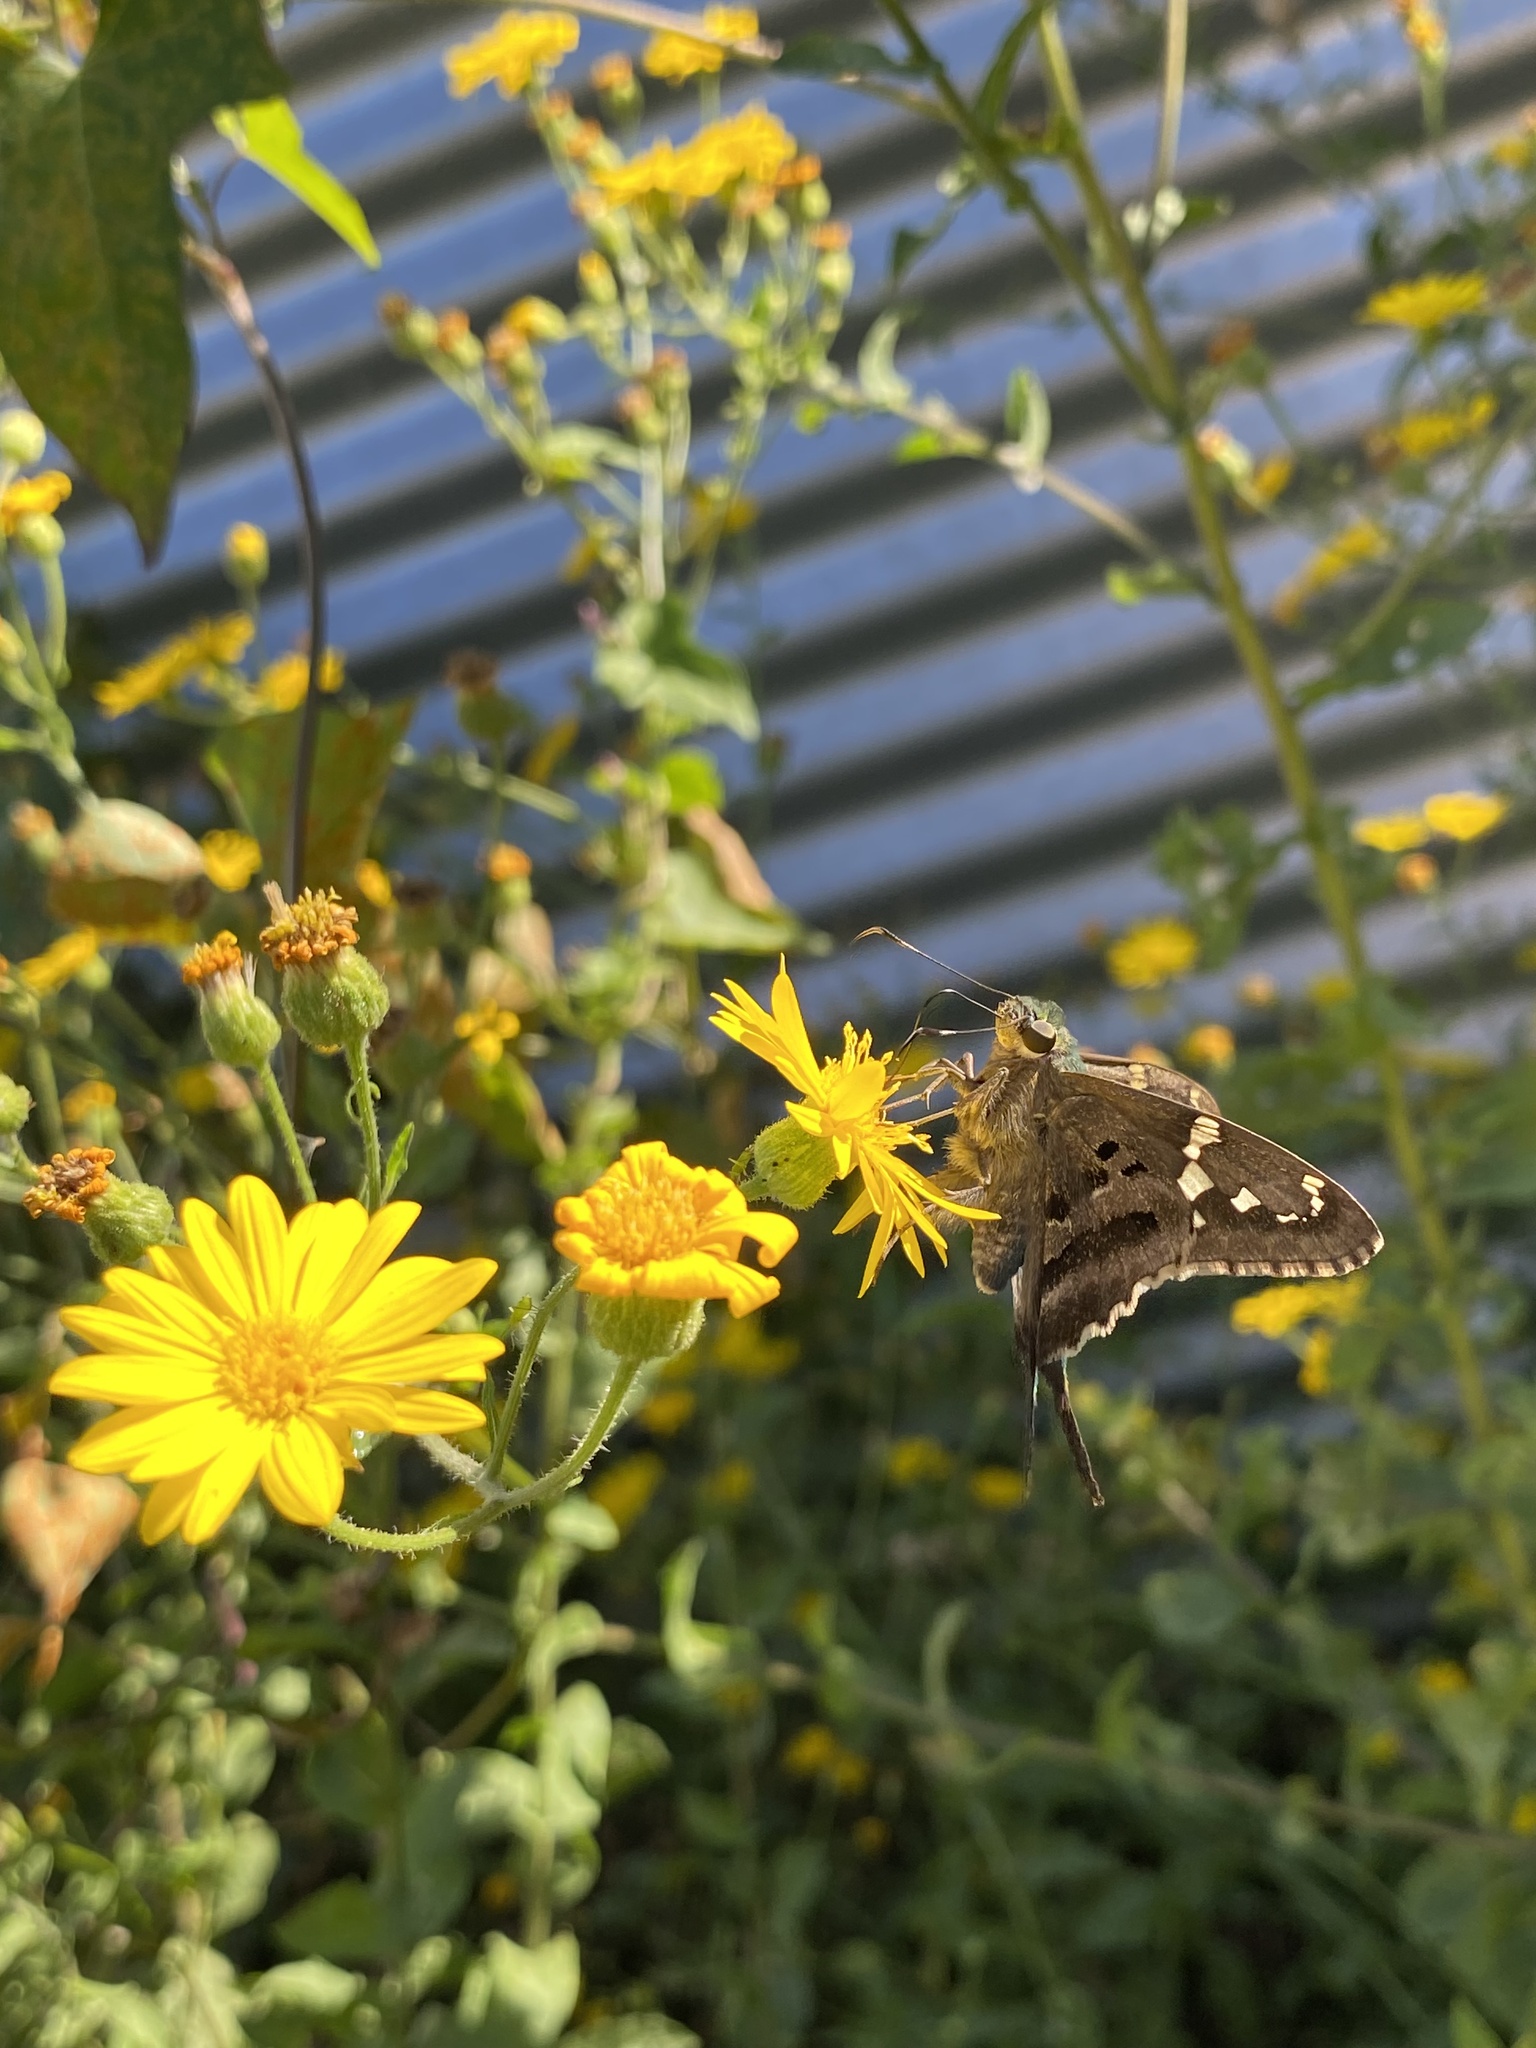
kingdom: Animalia
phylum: Arthropoda
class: Insecta
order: Lepidoptera
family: Hesperiidae
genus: Urbanus
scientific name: Urbanus proteus
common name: Long-tailed skipper
